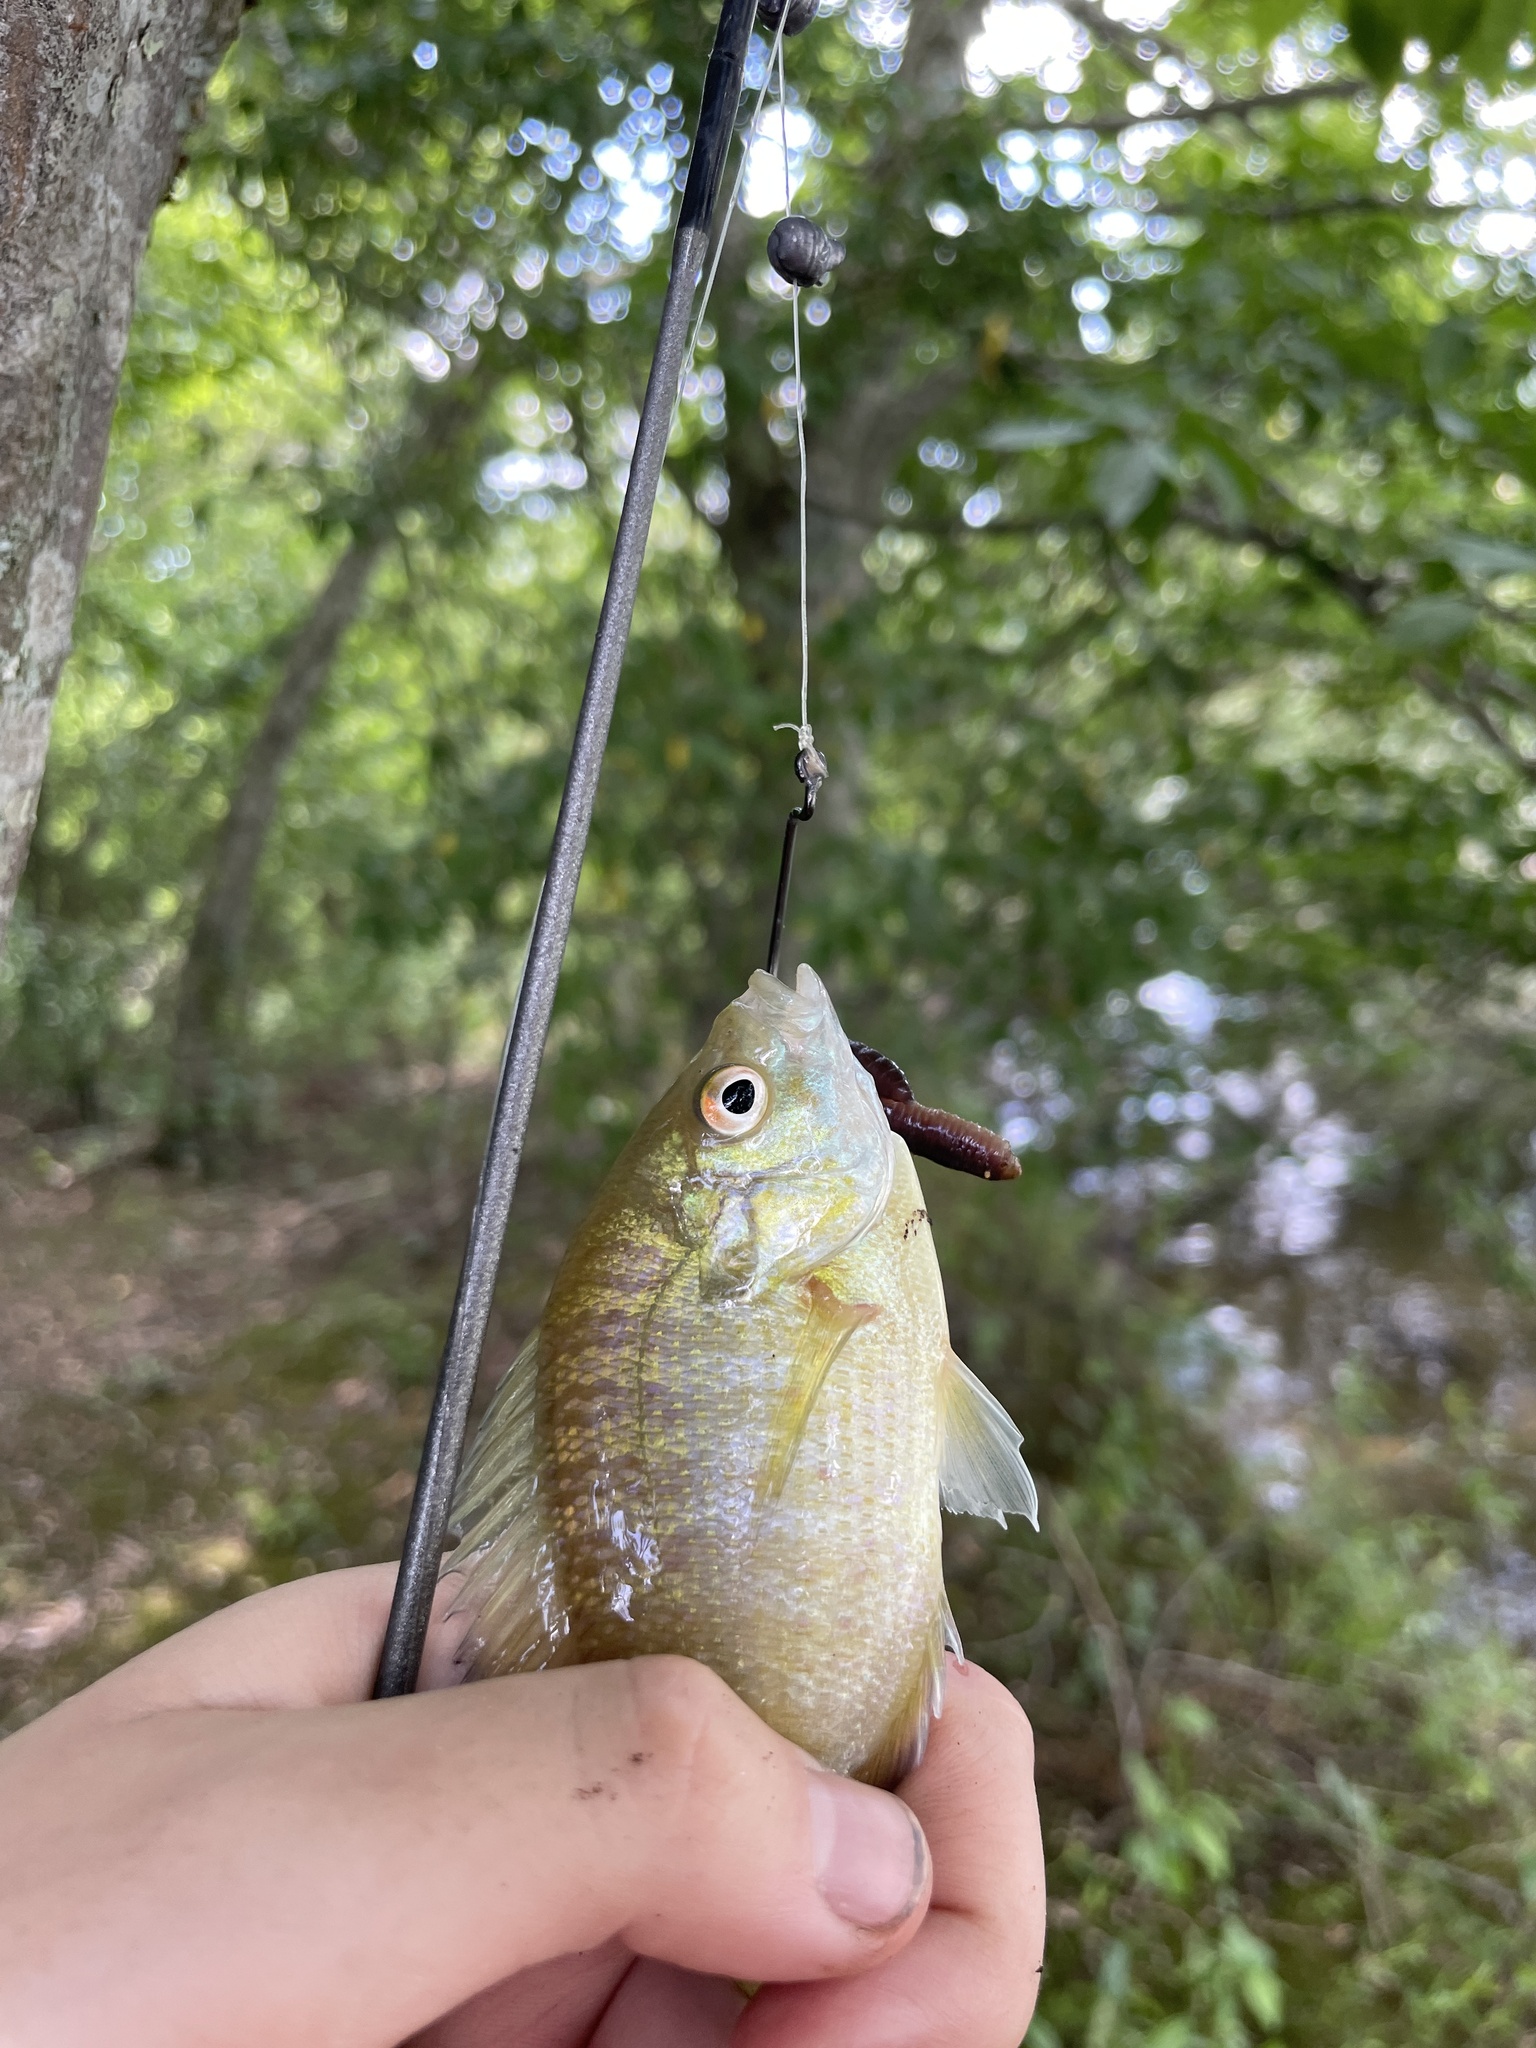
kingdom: Animalia
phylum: Chordata
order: Perciformes
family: Centrarchidae
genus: Lepomis
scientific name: Lepomis macrochirus
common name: Bluegill
